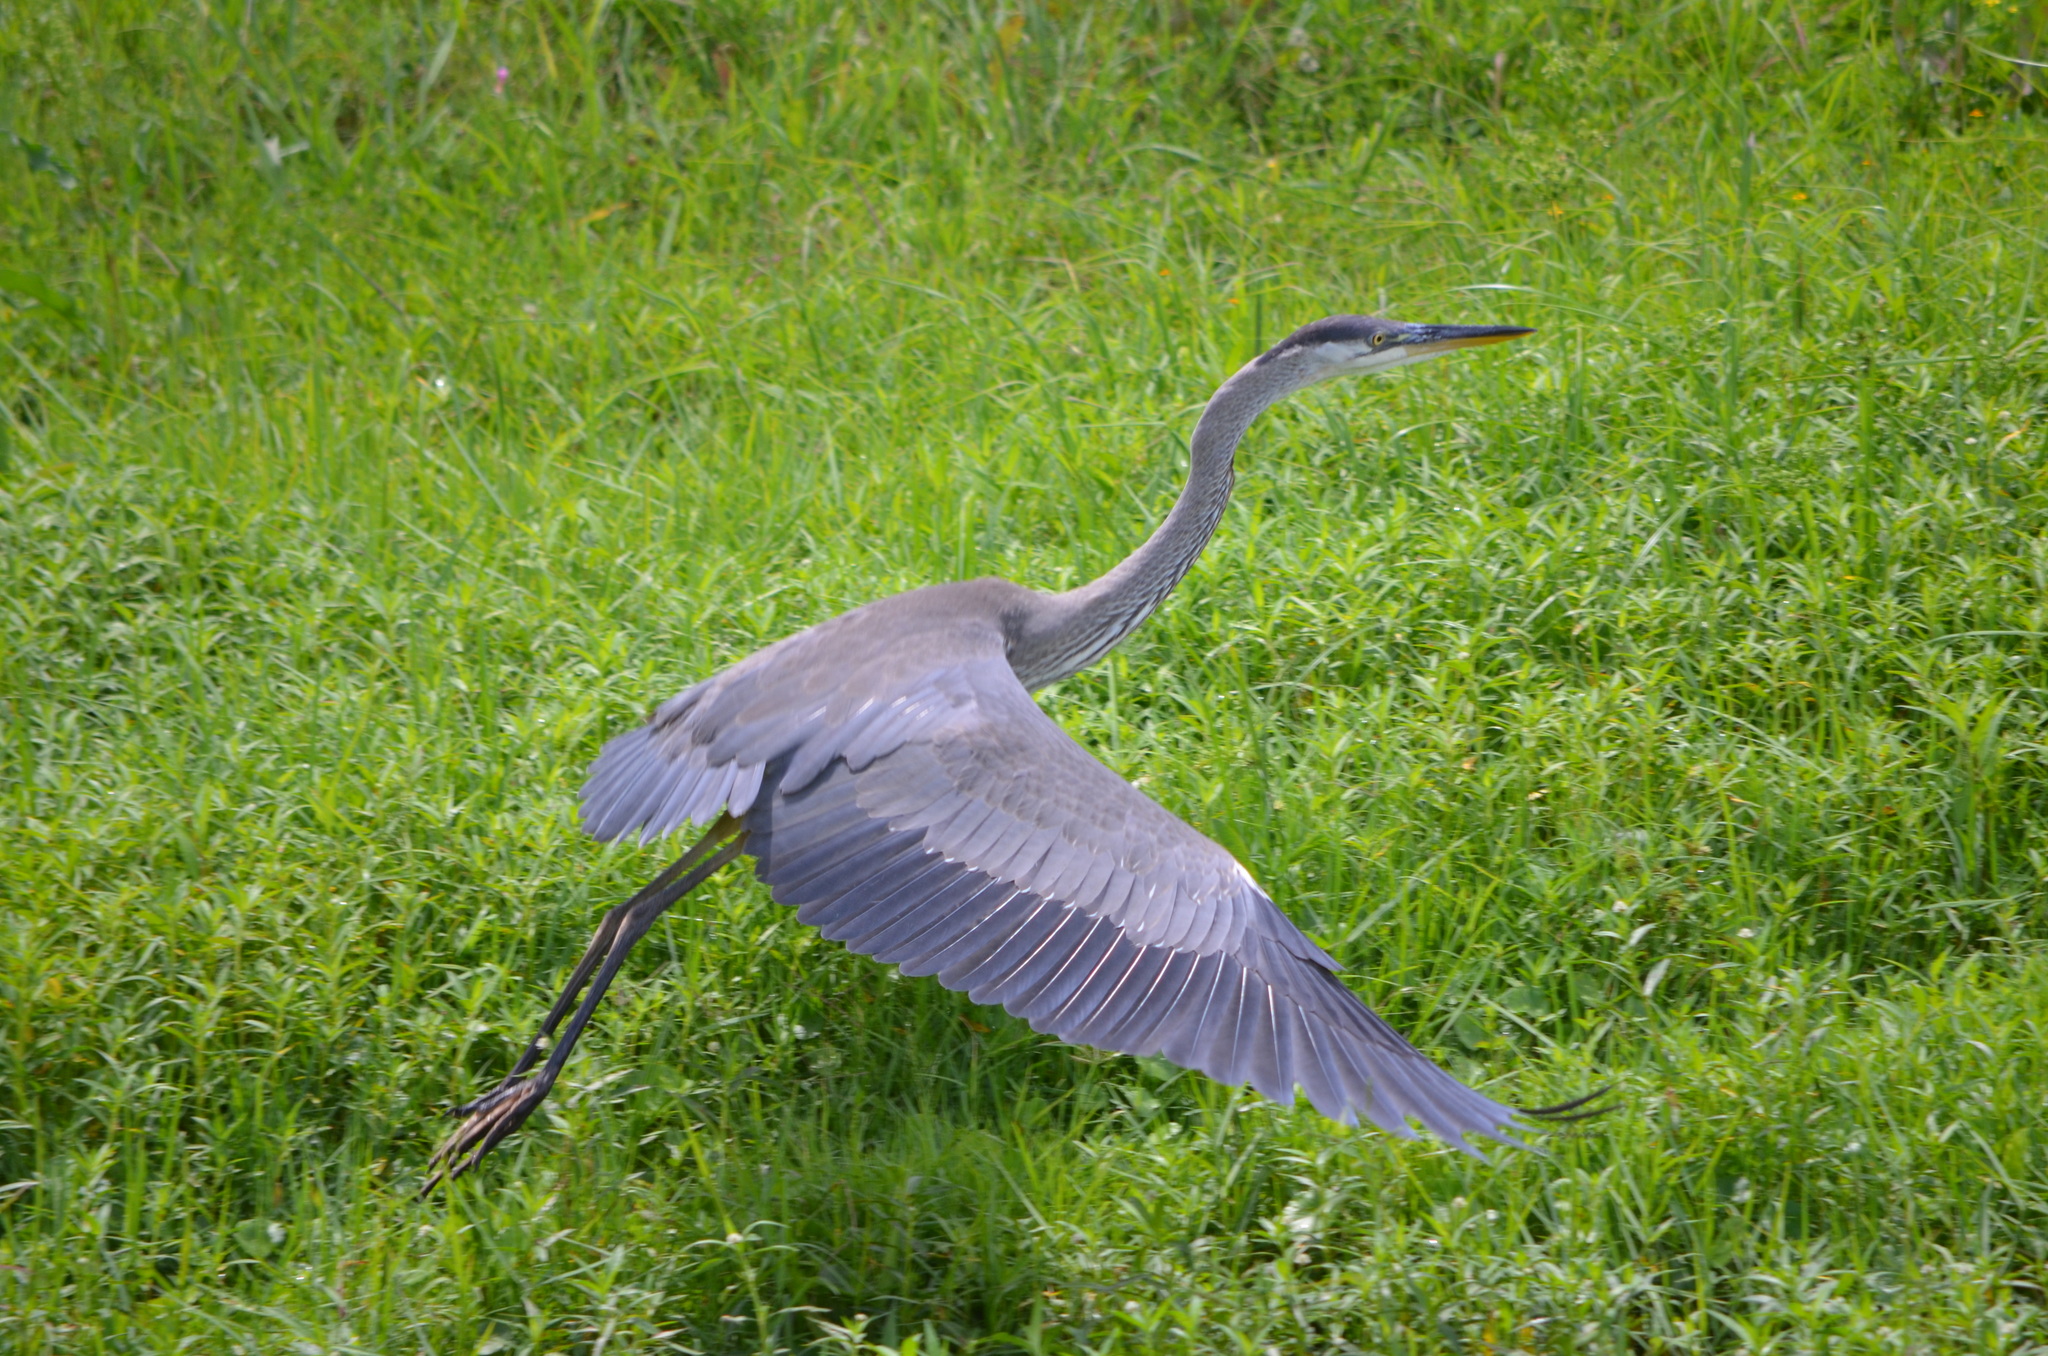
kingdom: Animalia
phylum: Chordata
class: Aves
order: Pelecaniformes
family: Ardeidae
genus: Ardea
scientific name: Ardea herodias
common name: Great blue heron
